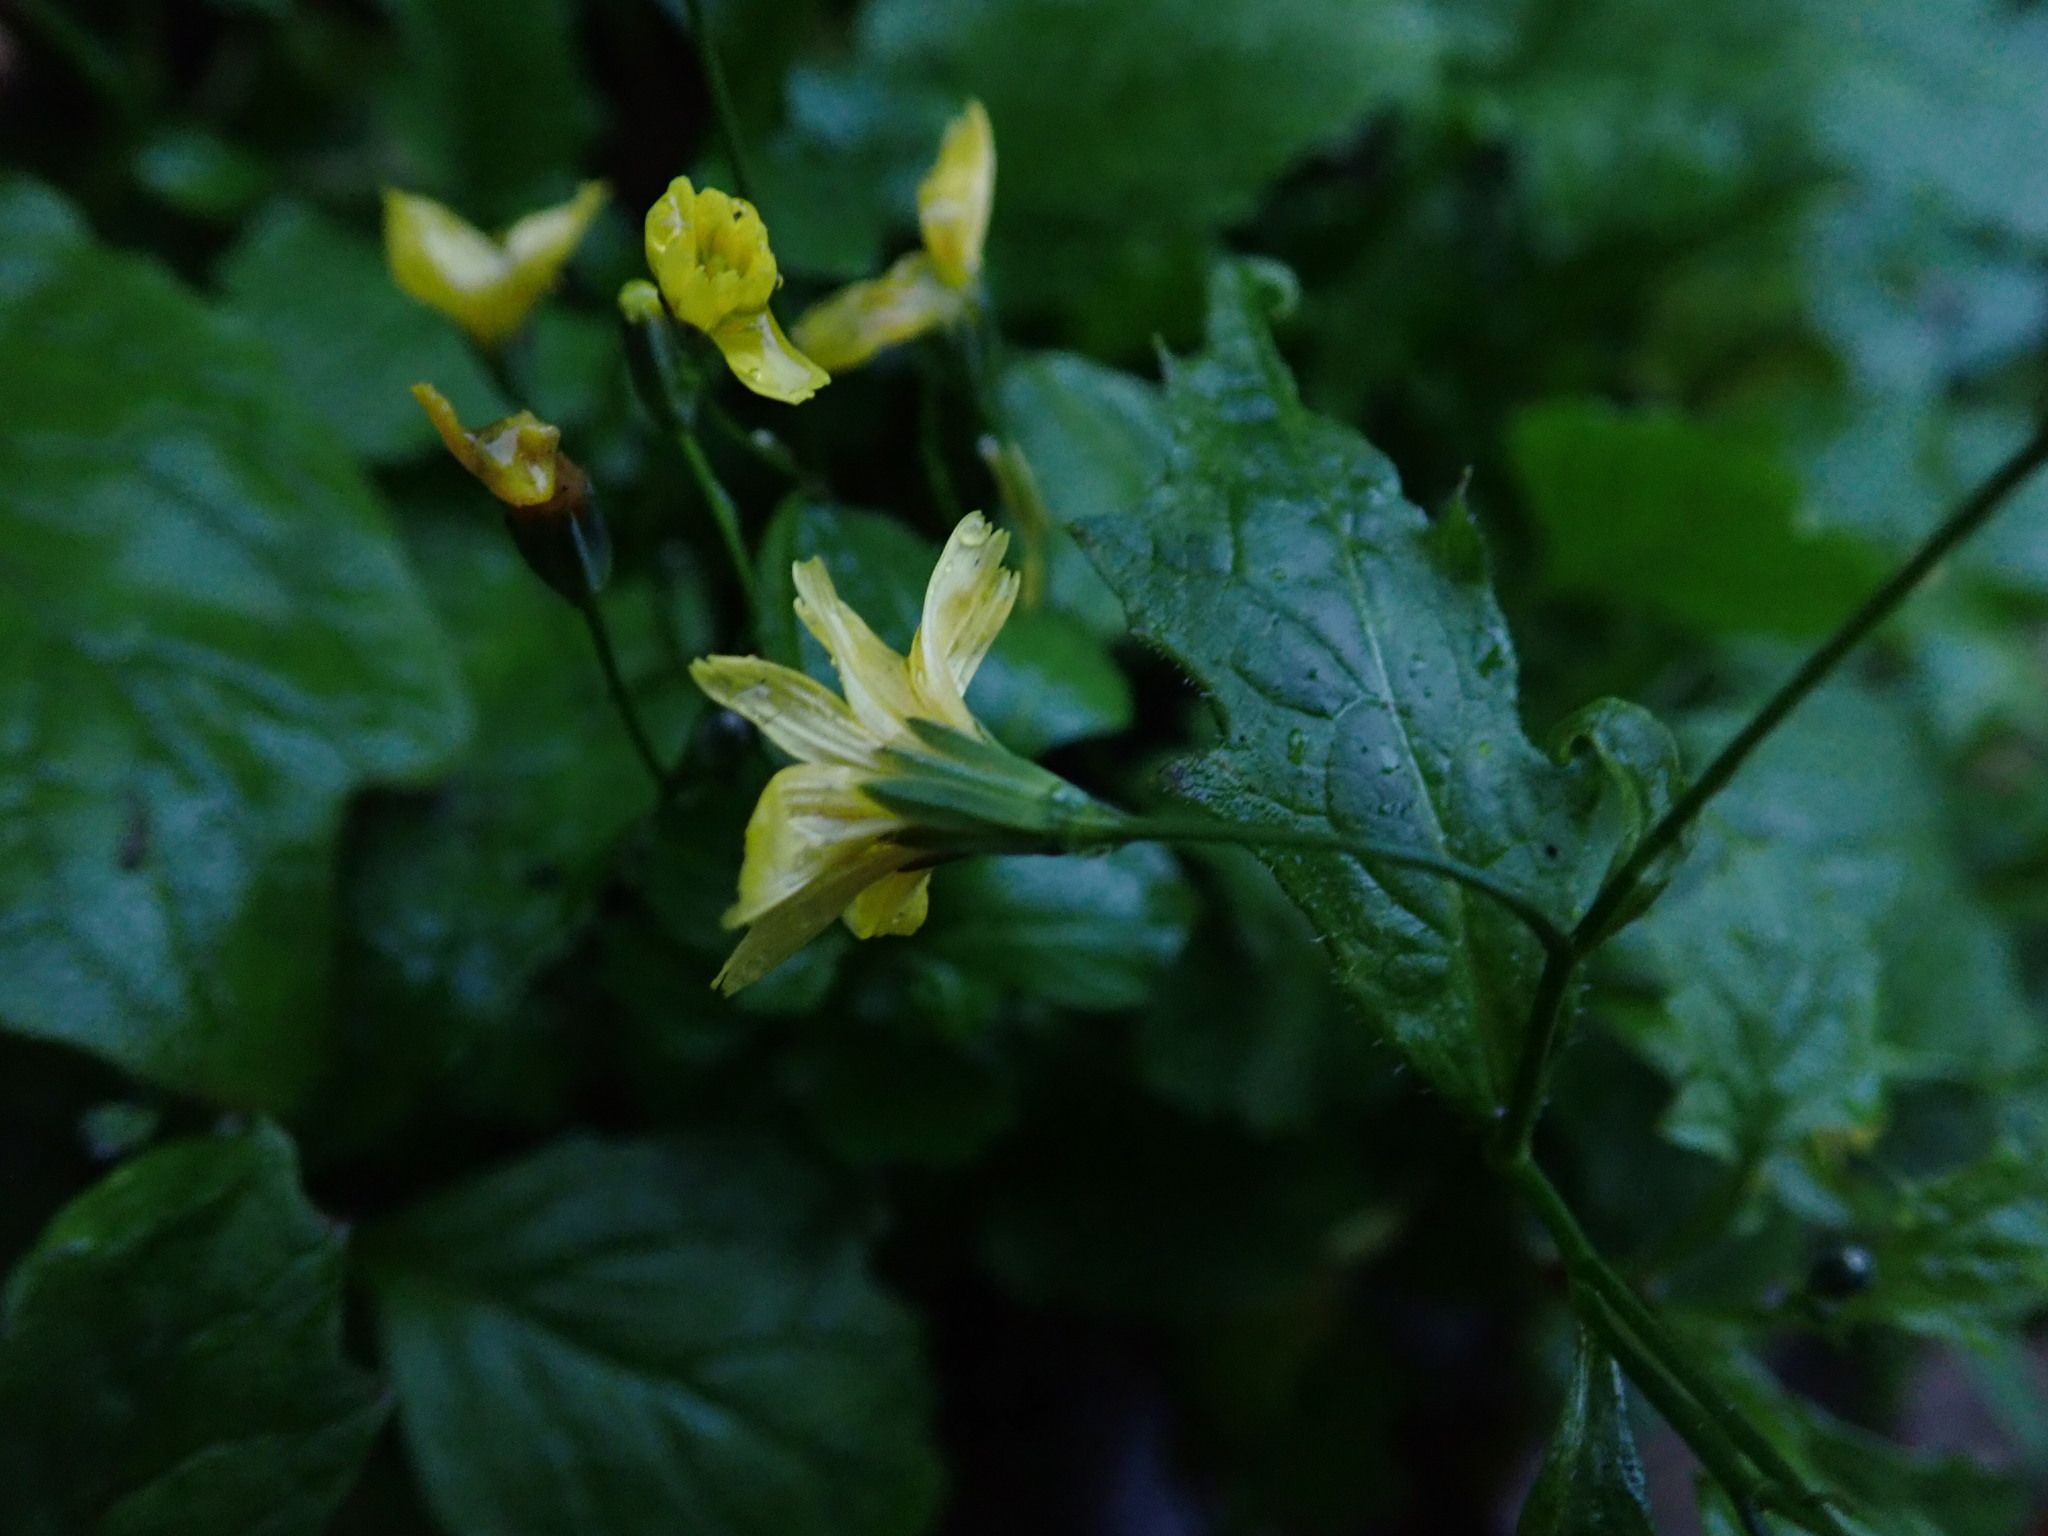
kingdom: Plantae
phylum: Tracheophyta
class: Magnoliopsida
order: Asterales
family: Asteraceae
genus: Lapsana
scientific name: Lapsana communis
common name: Nipplewort
